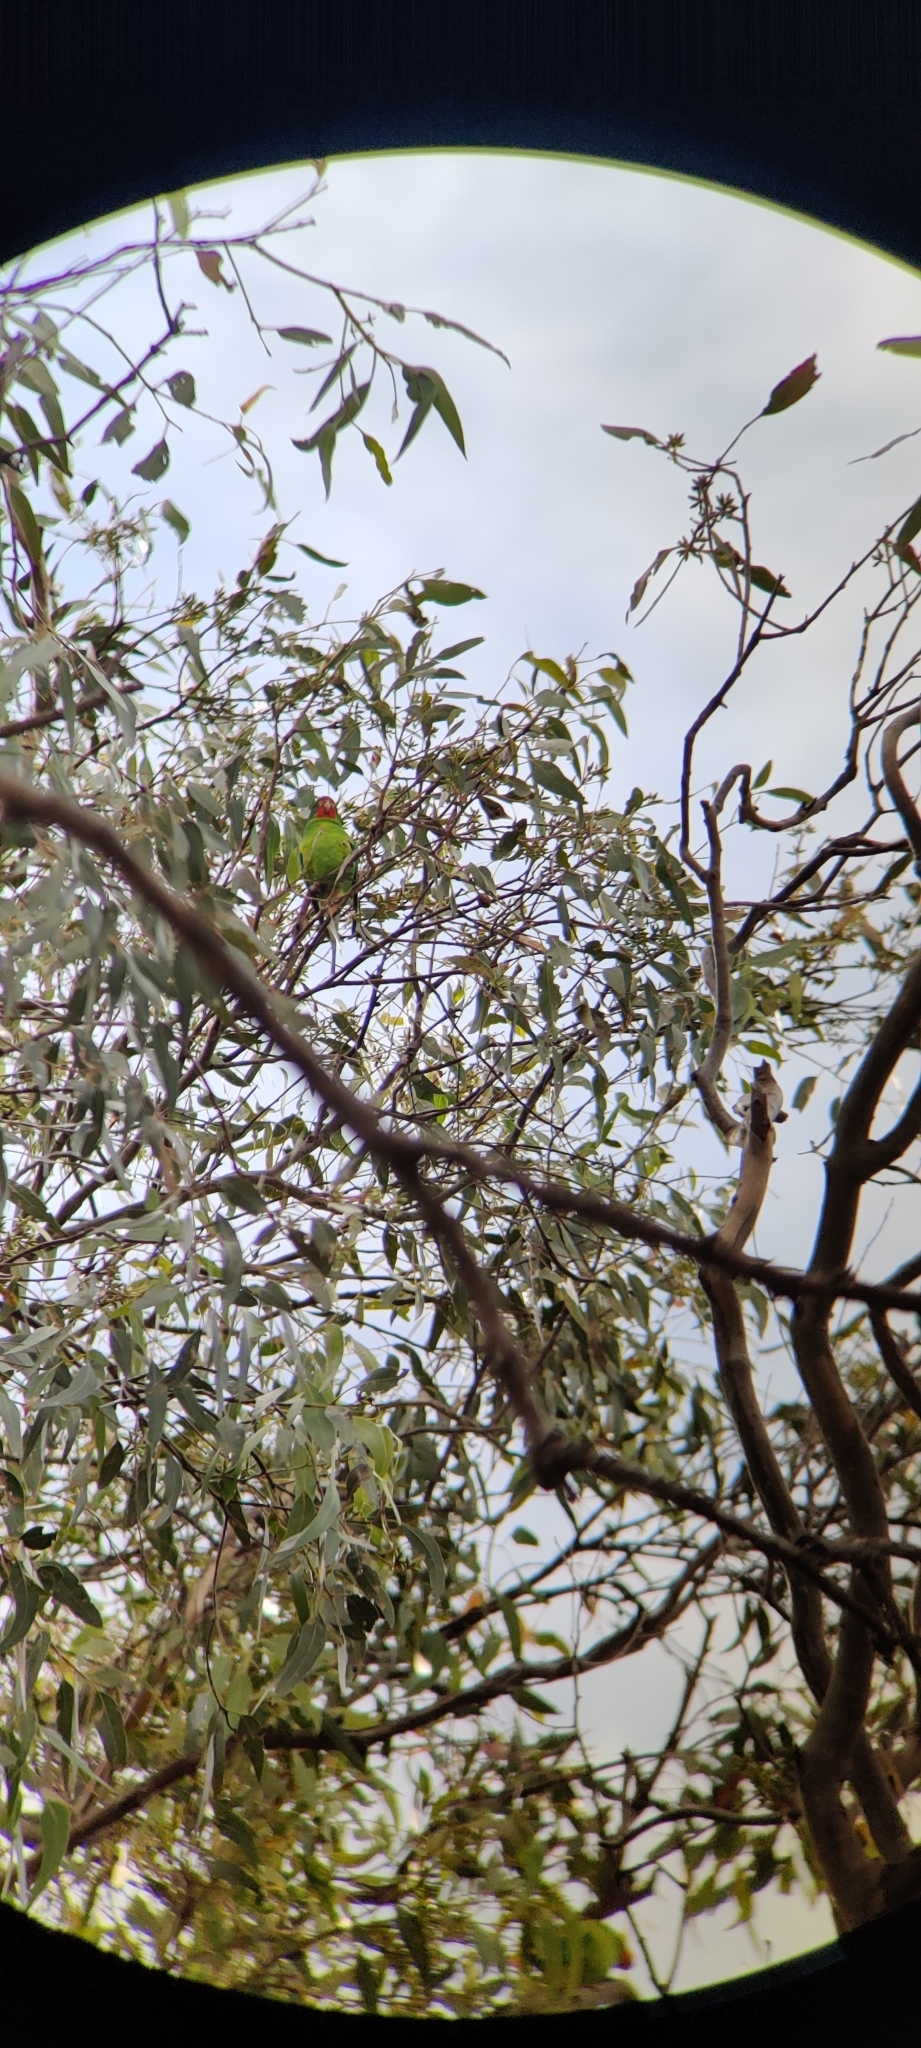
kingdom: Animalia
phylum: Chordata
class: Aves
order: Psittaciformes
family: Psittacidae
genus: Lathamus
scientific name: Lathamus discolor
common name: Swift parrot
